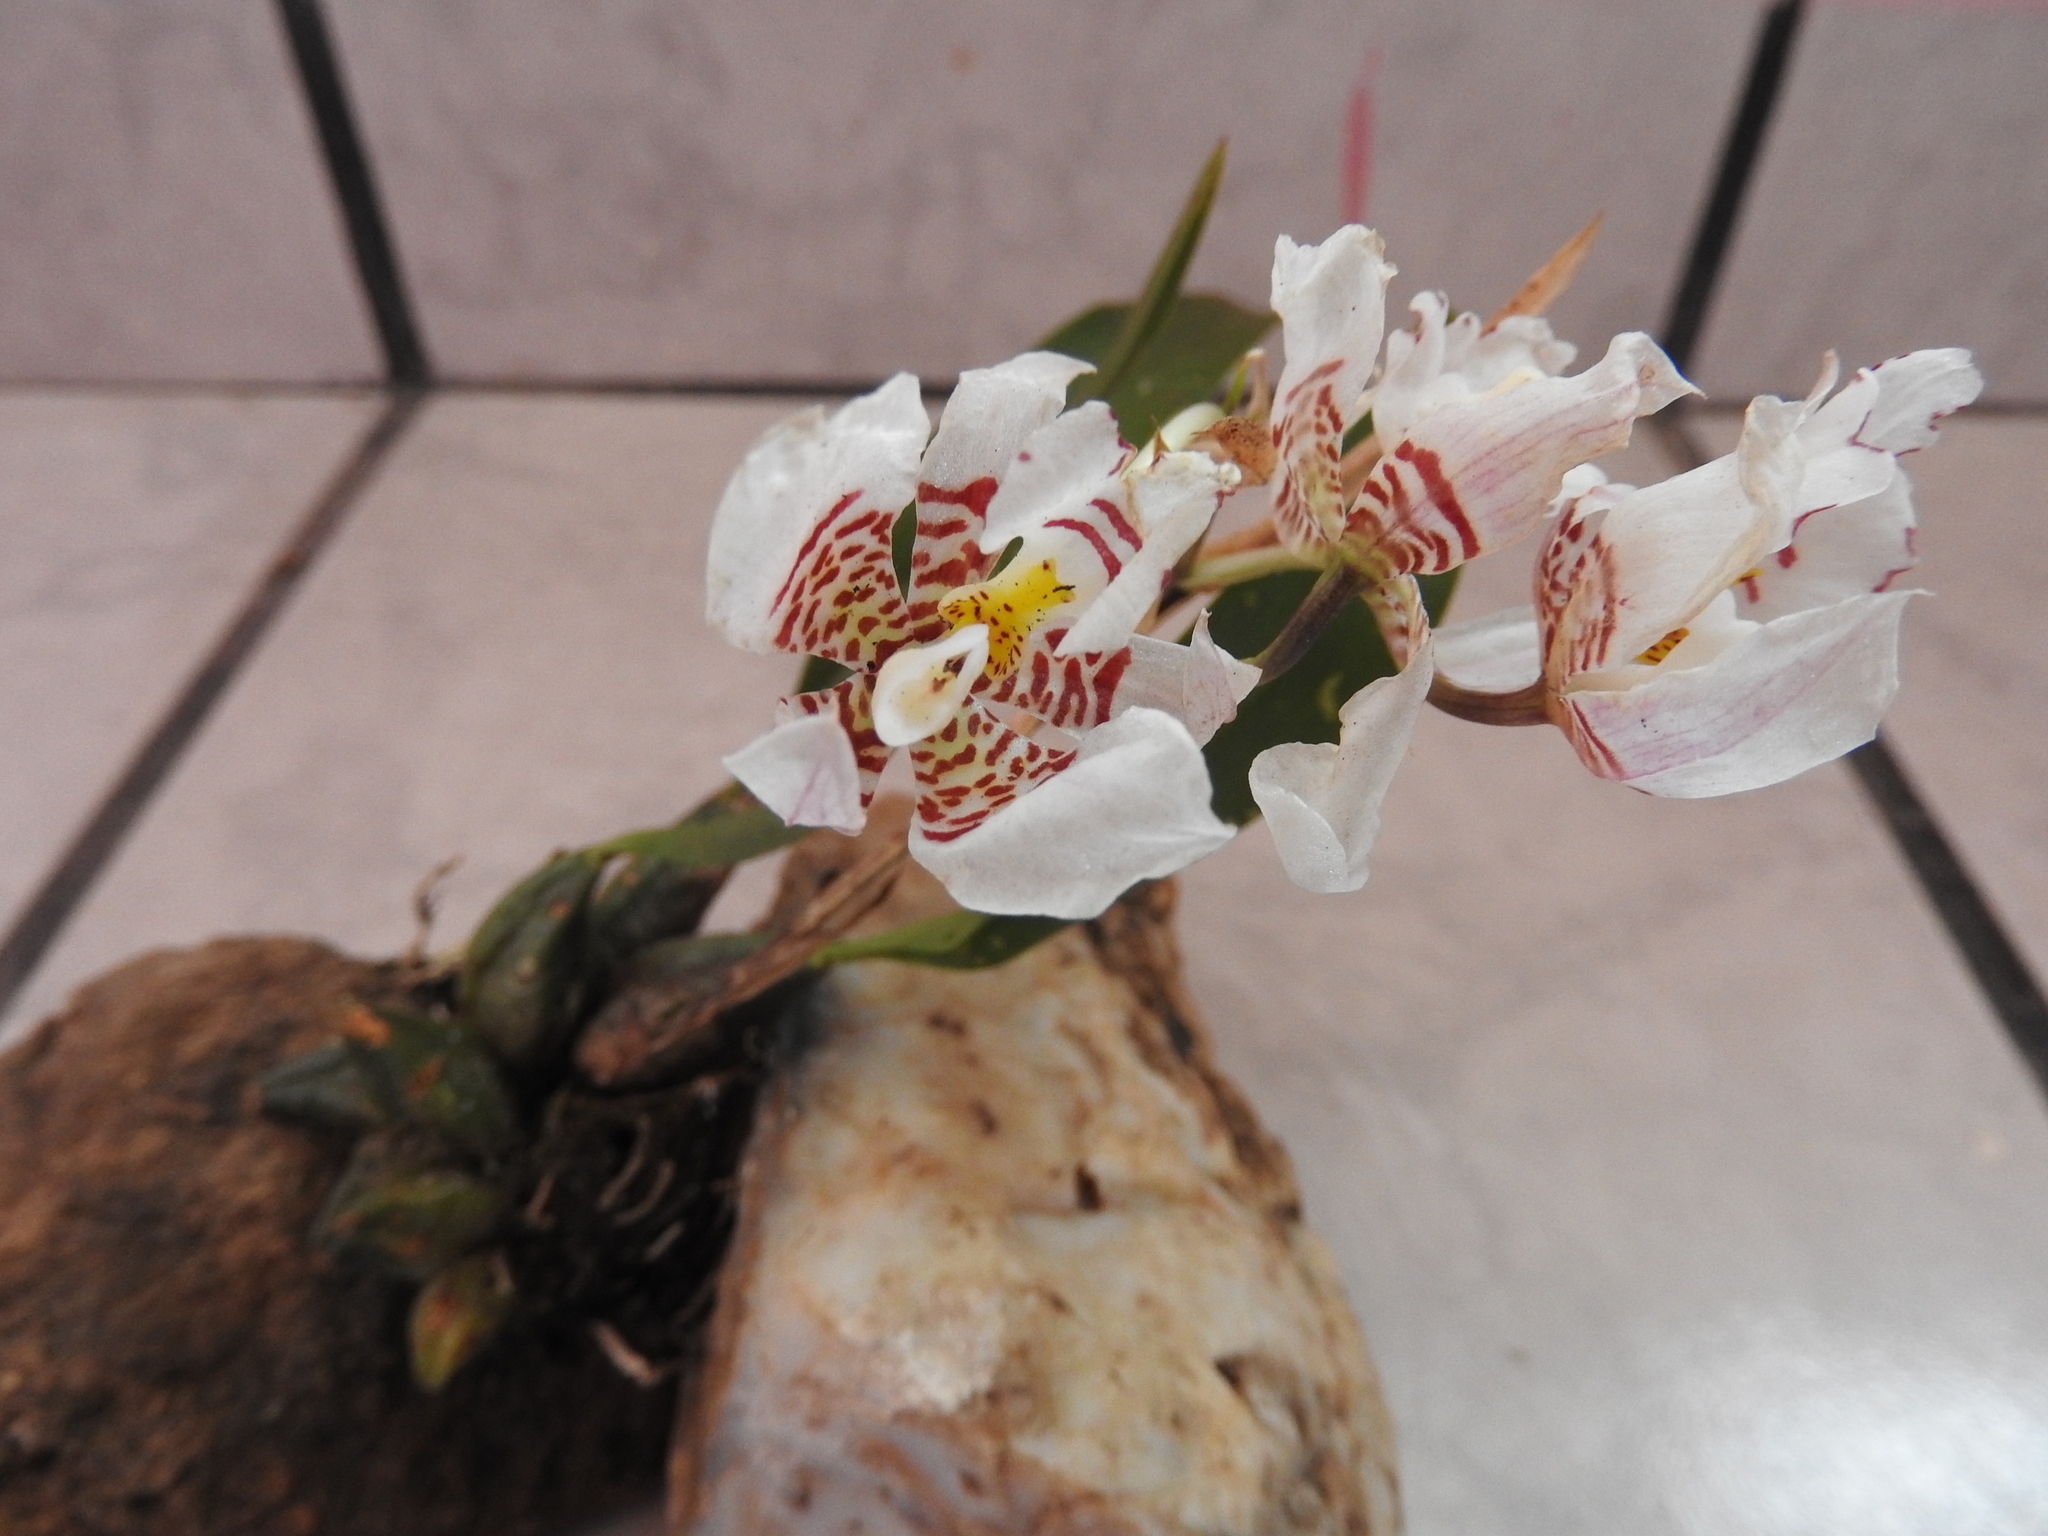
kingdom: Plantae
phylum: Tracheophyta
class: Liliopsida
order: Asparagales
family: Orchidaceae
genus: Rhynchostele
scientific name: Rhynchostele cervantesii
